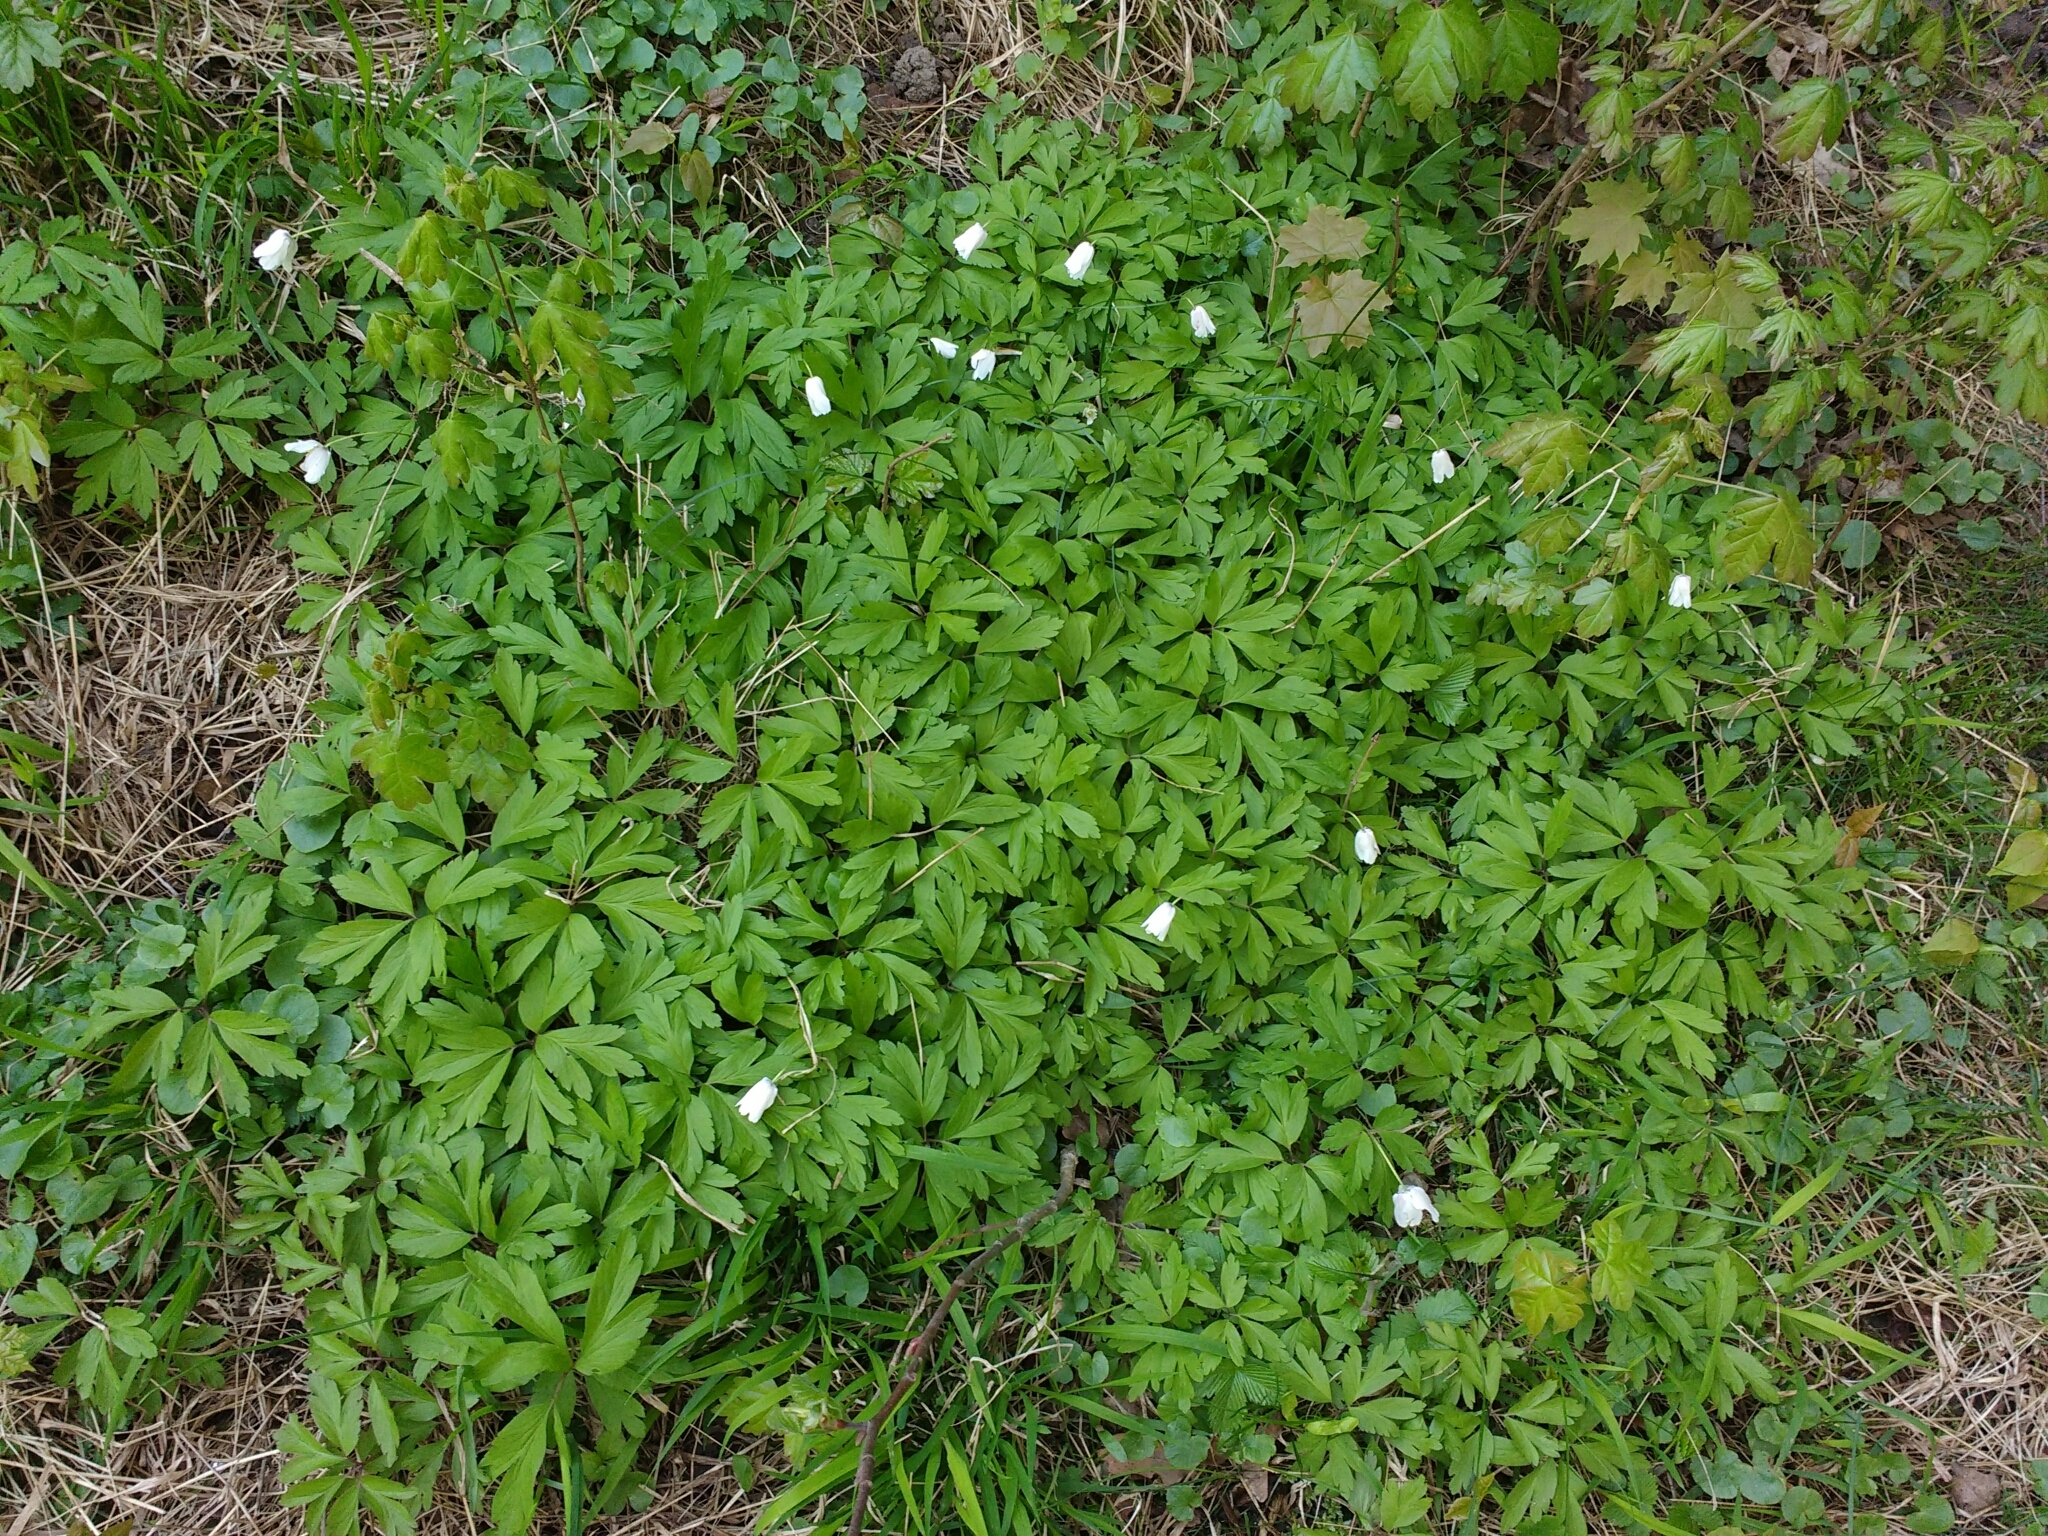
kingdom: Plantae
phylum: Tracheophyta
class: Magnoliopsida
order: Ranunculales
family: Ranunculaceae
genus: Anemone
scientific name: Anemone nemorosa
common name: Wood anemone
